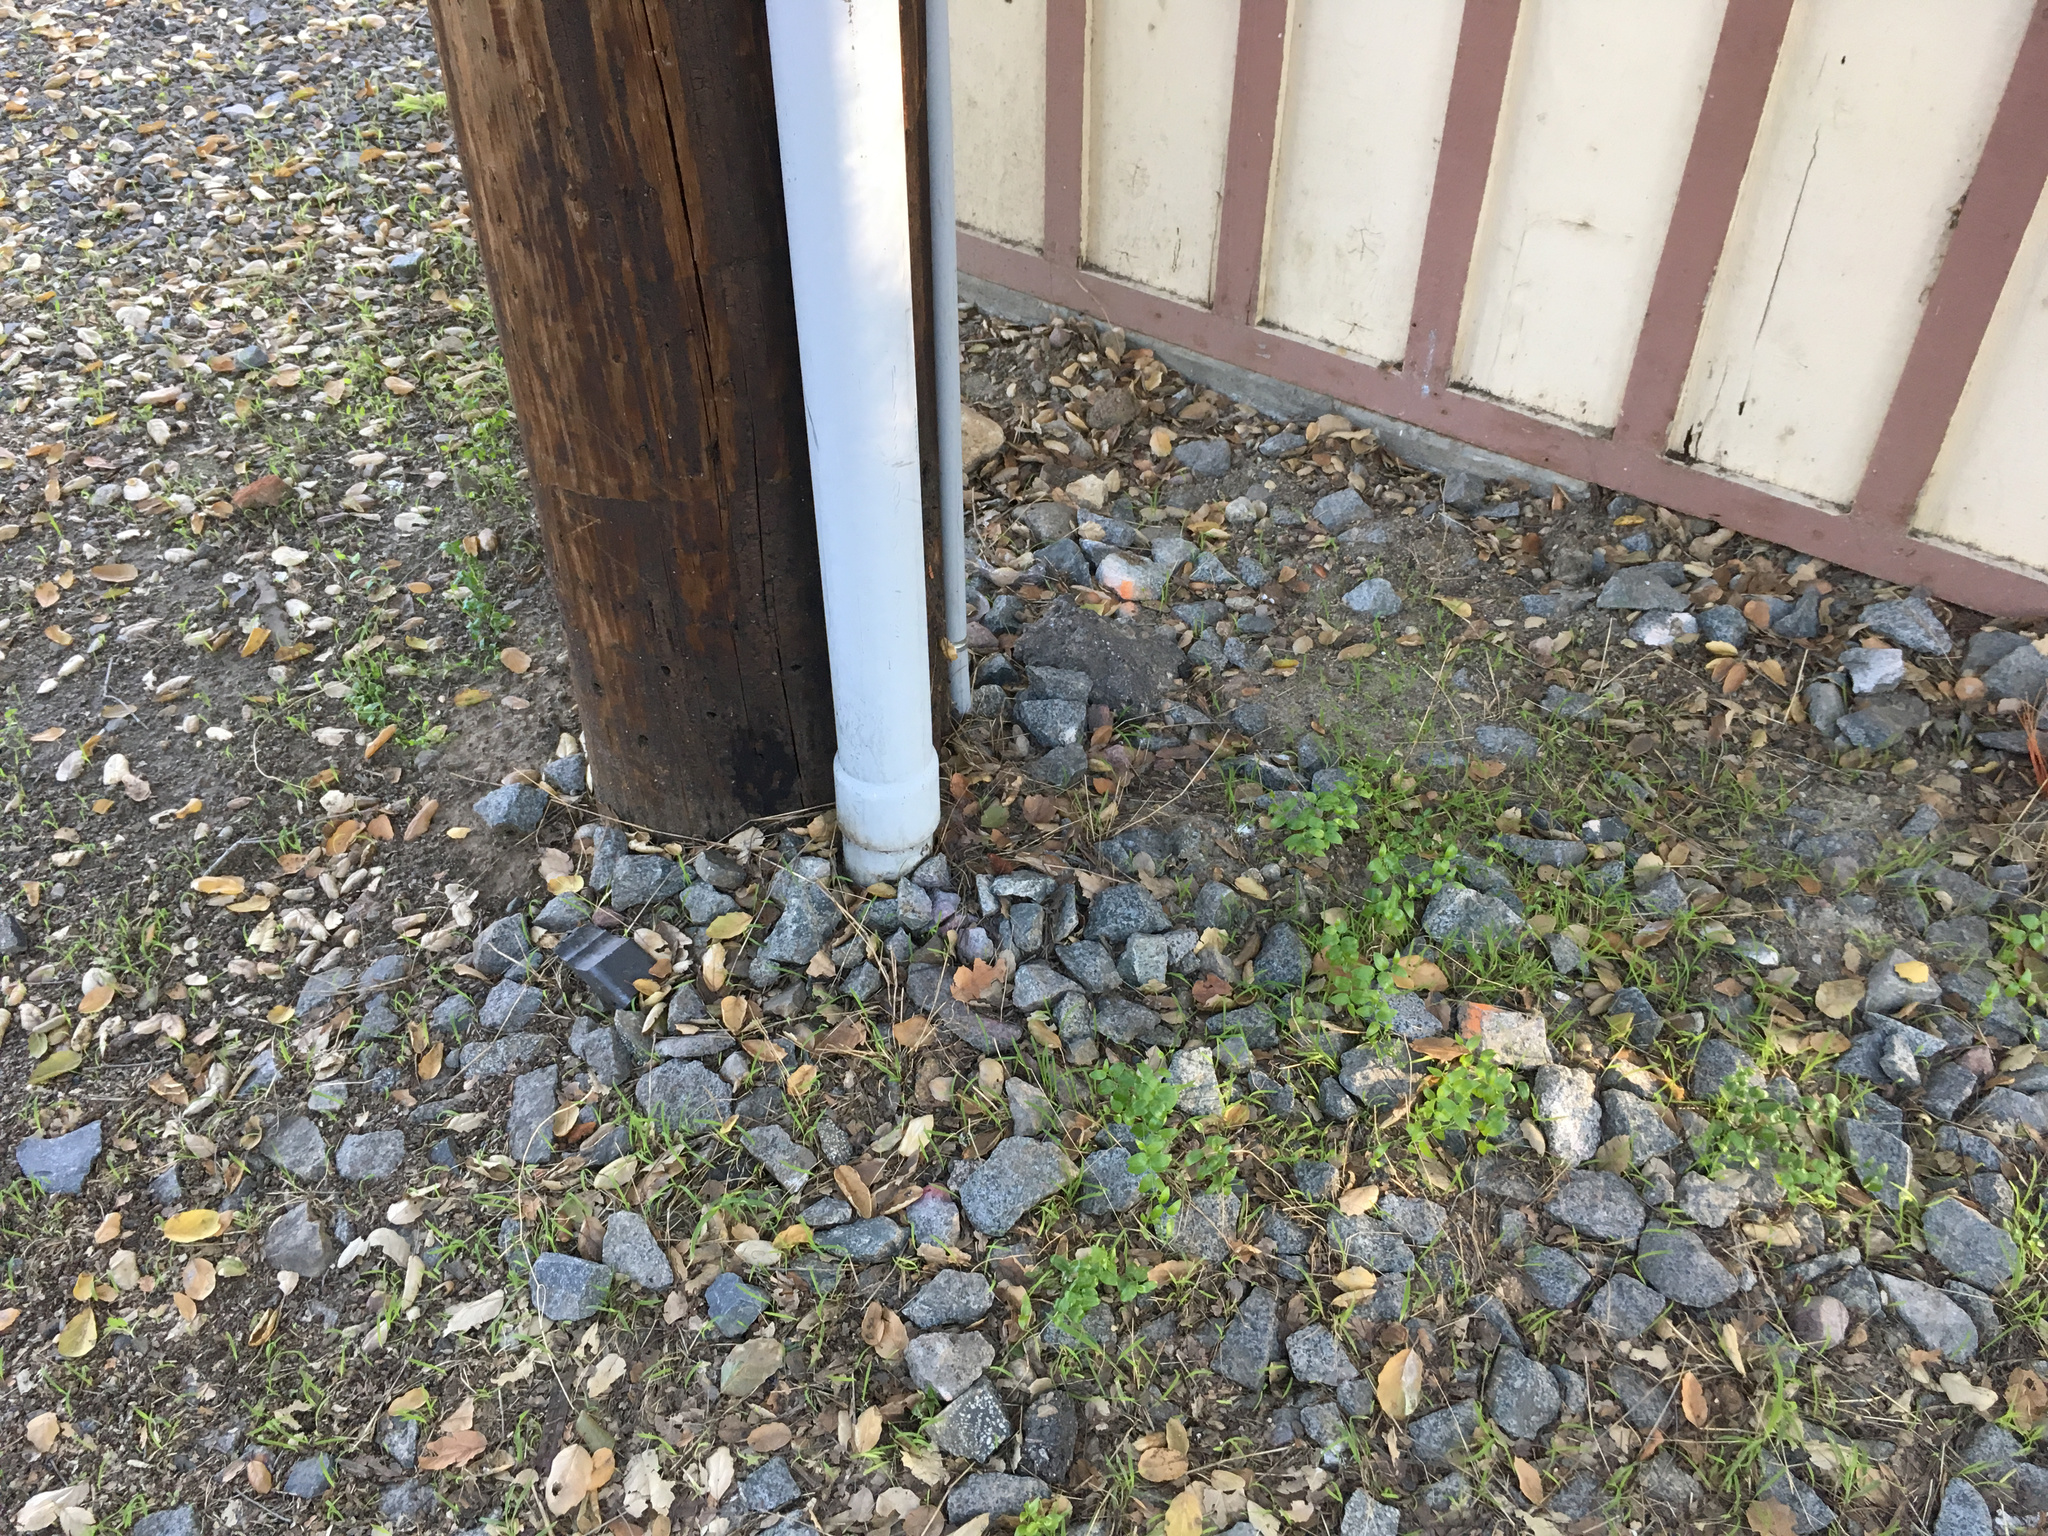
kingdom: Plantae
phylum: Tracheophyta
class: Liliopsida
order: Asparagales
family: Asparagaceae
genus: Asparagus
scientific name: Asparagus asparagoides
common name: African asparagus fern
